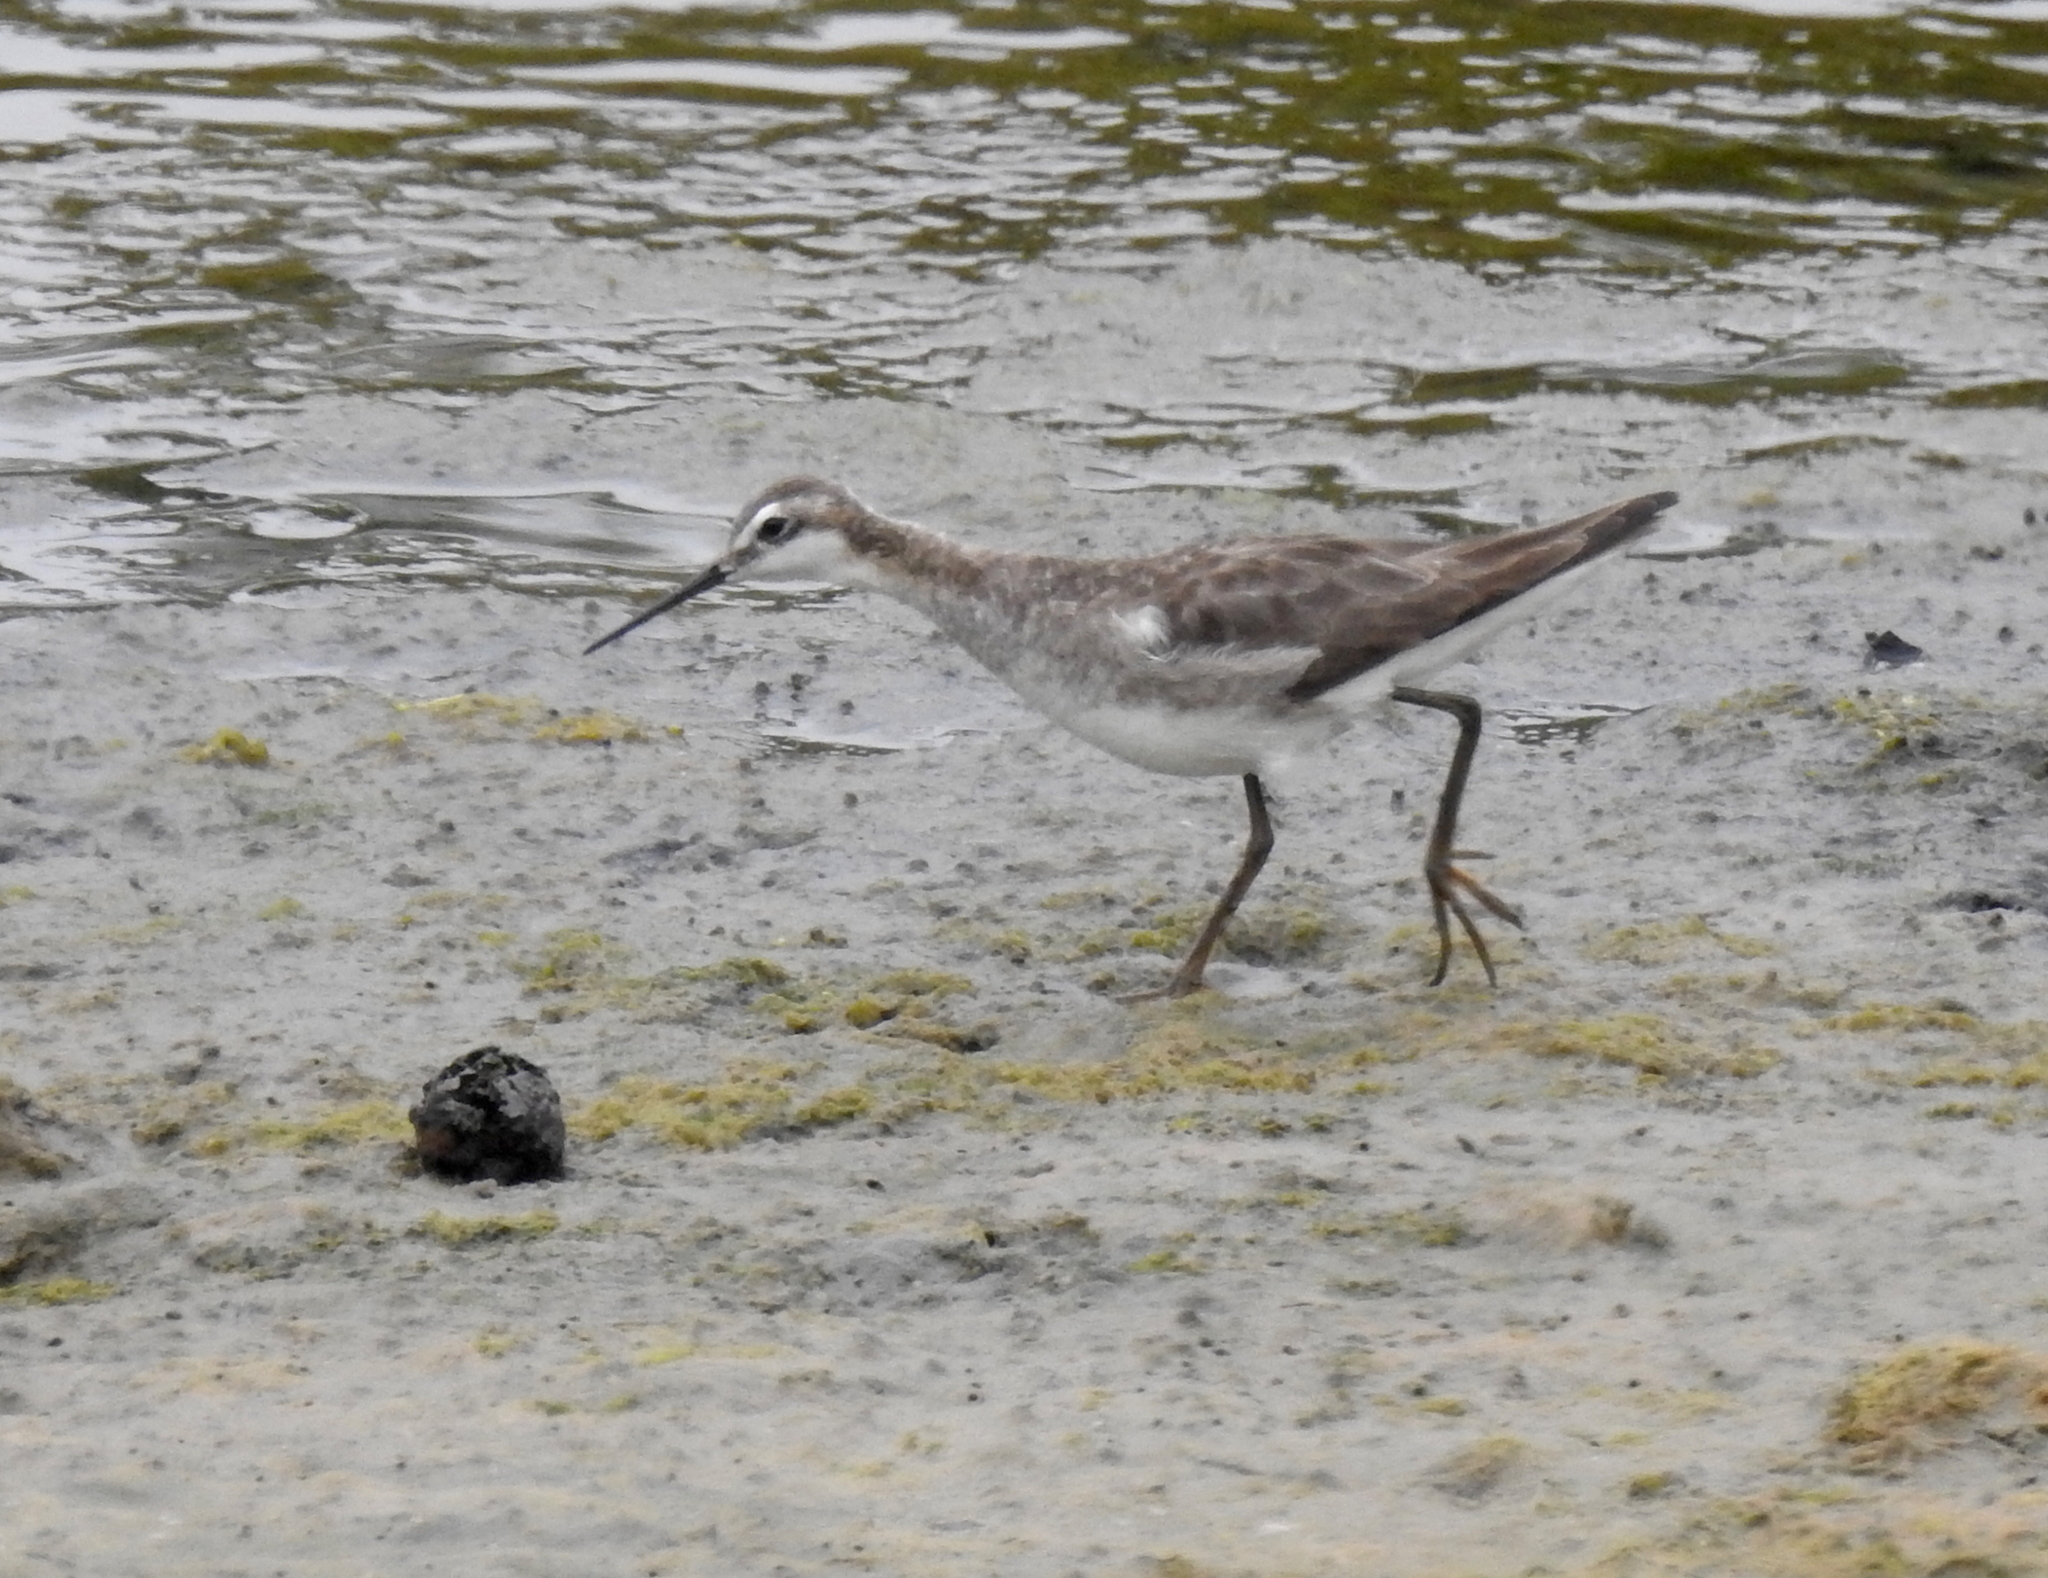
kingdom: Animalia
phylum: Chordata
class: Aves
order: Charadriiformes
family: Scolopacidae
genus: Phalaropus
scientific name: Phalaropus tricolor
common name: Wilson's phalarope
